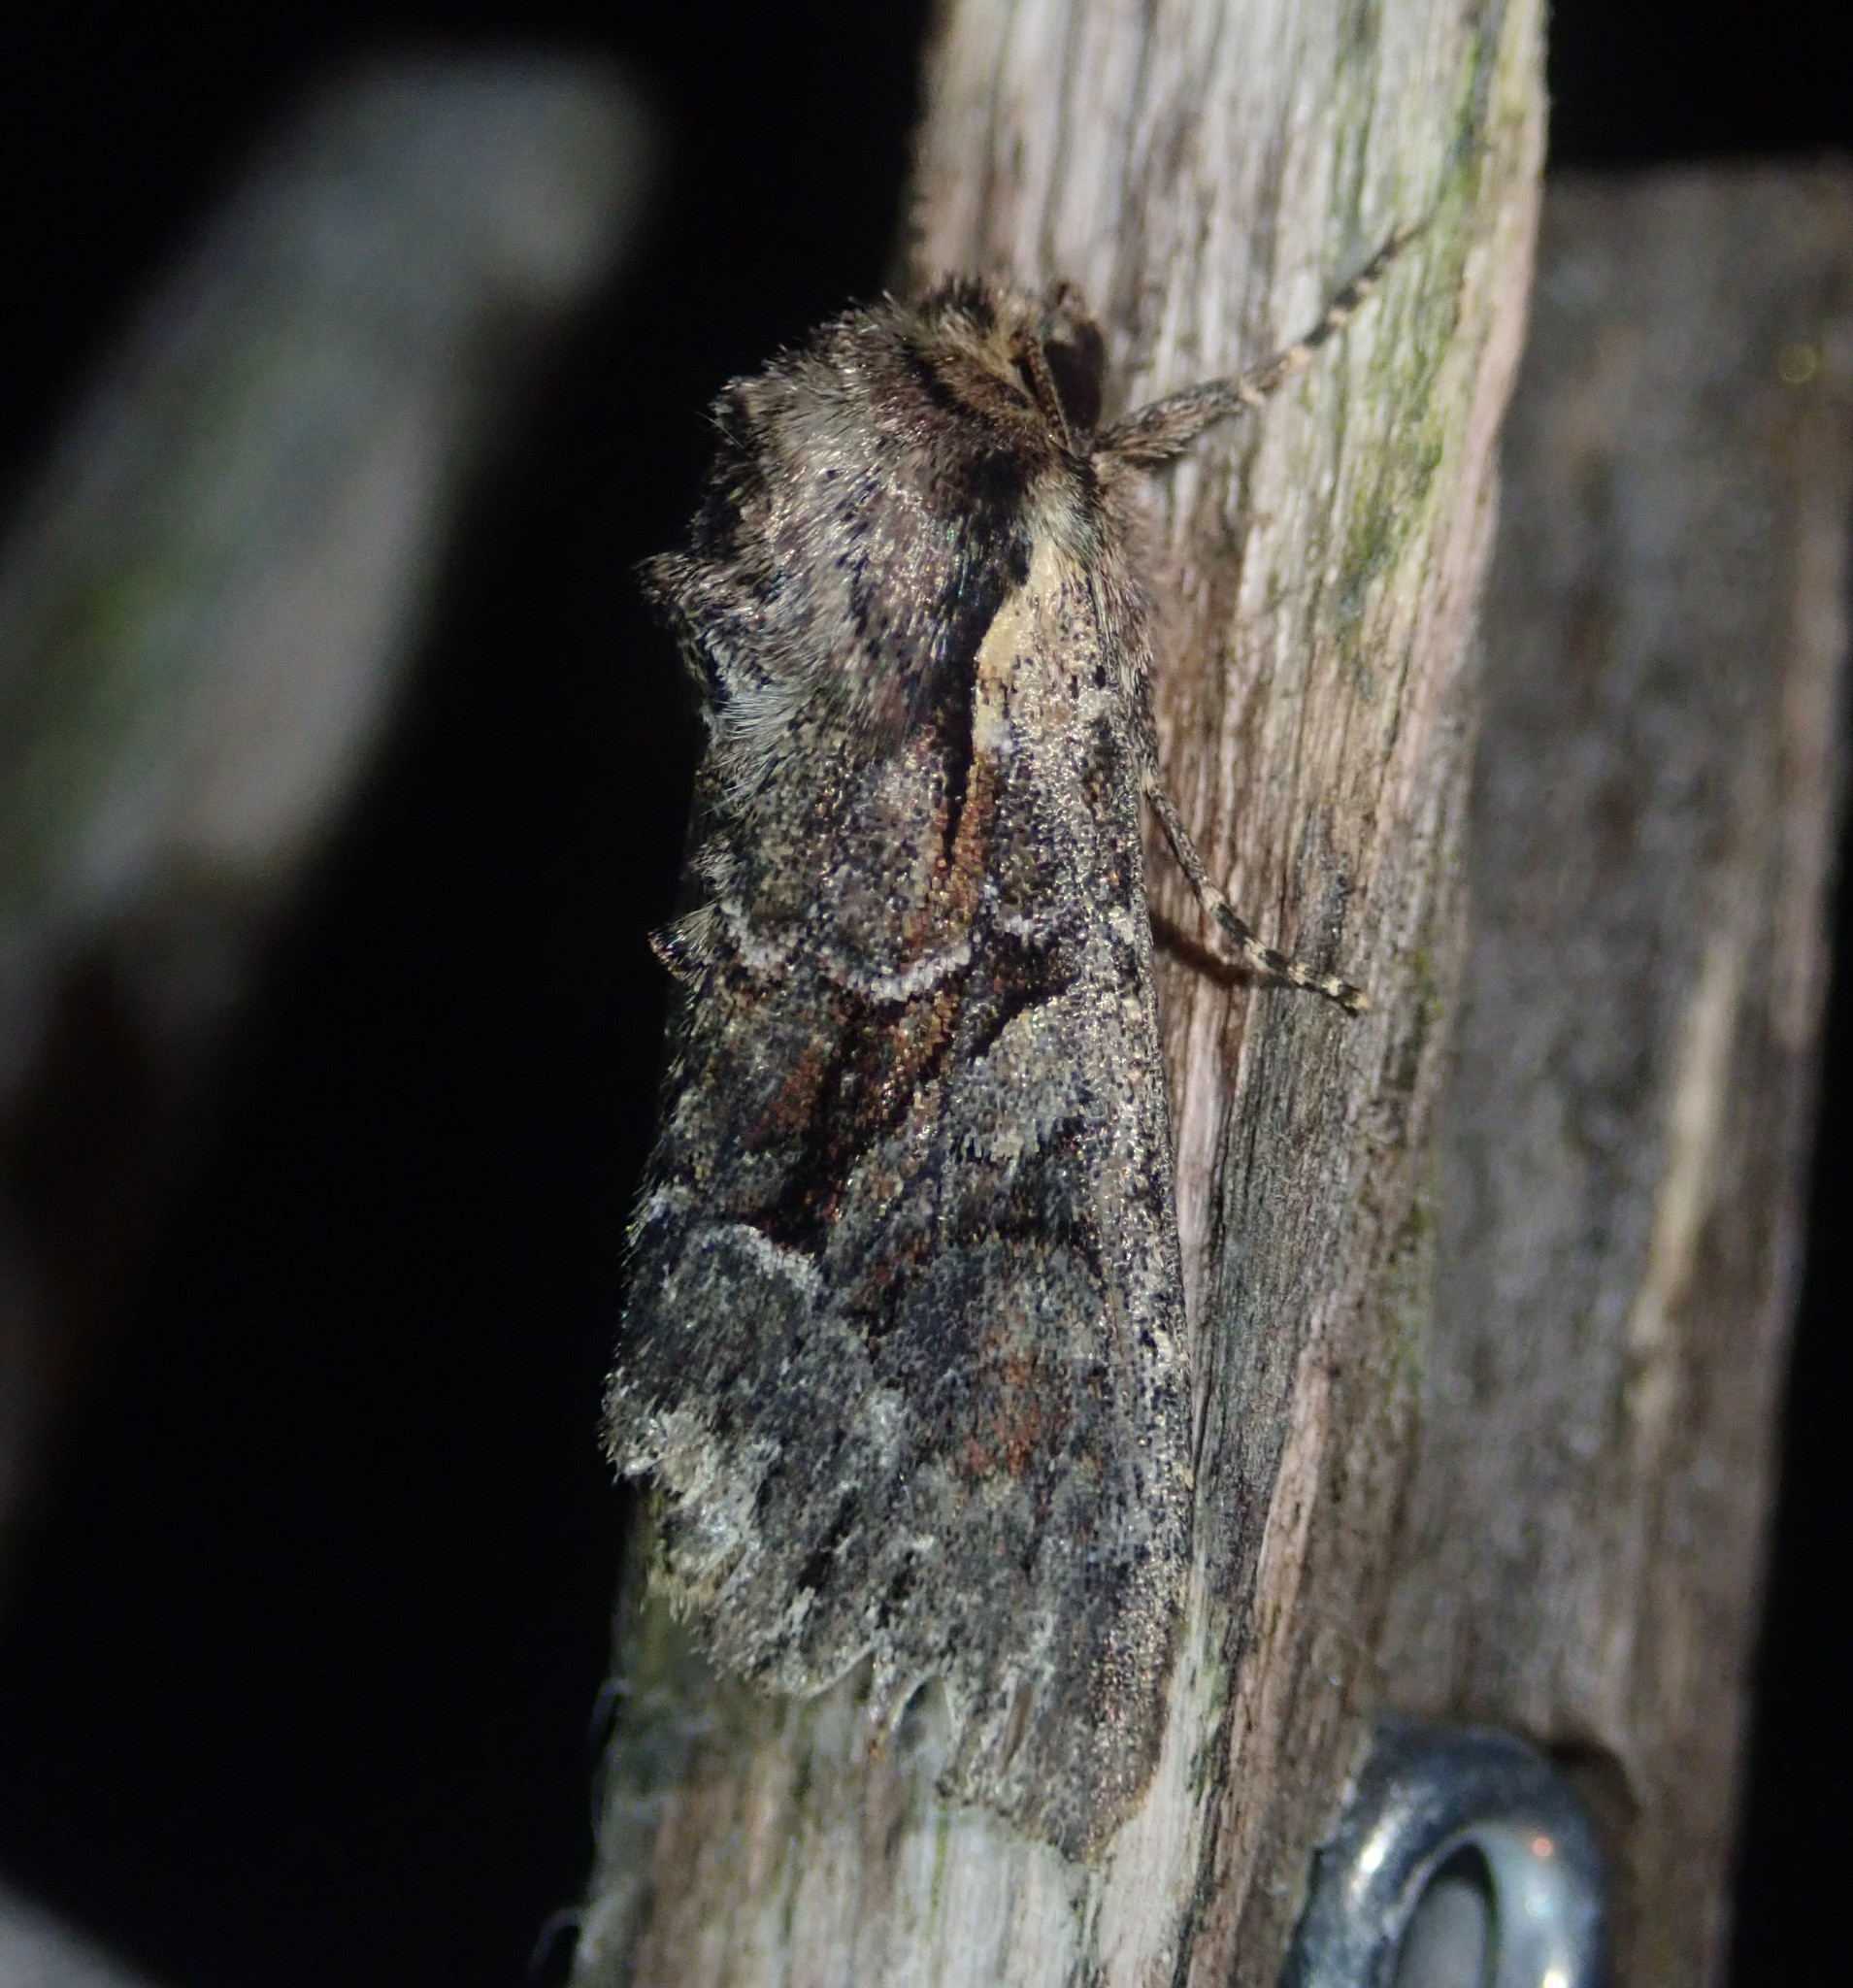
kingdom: Animalia
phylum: Arthropoda
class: Insecta
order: Lepidoptera
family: Noctuidae
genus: Lacanobia
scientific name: Lacanobia thalassina
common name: Pale-shouldered brocade
